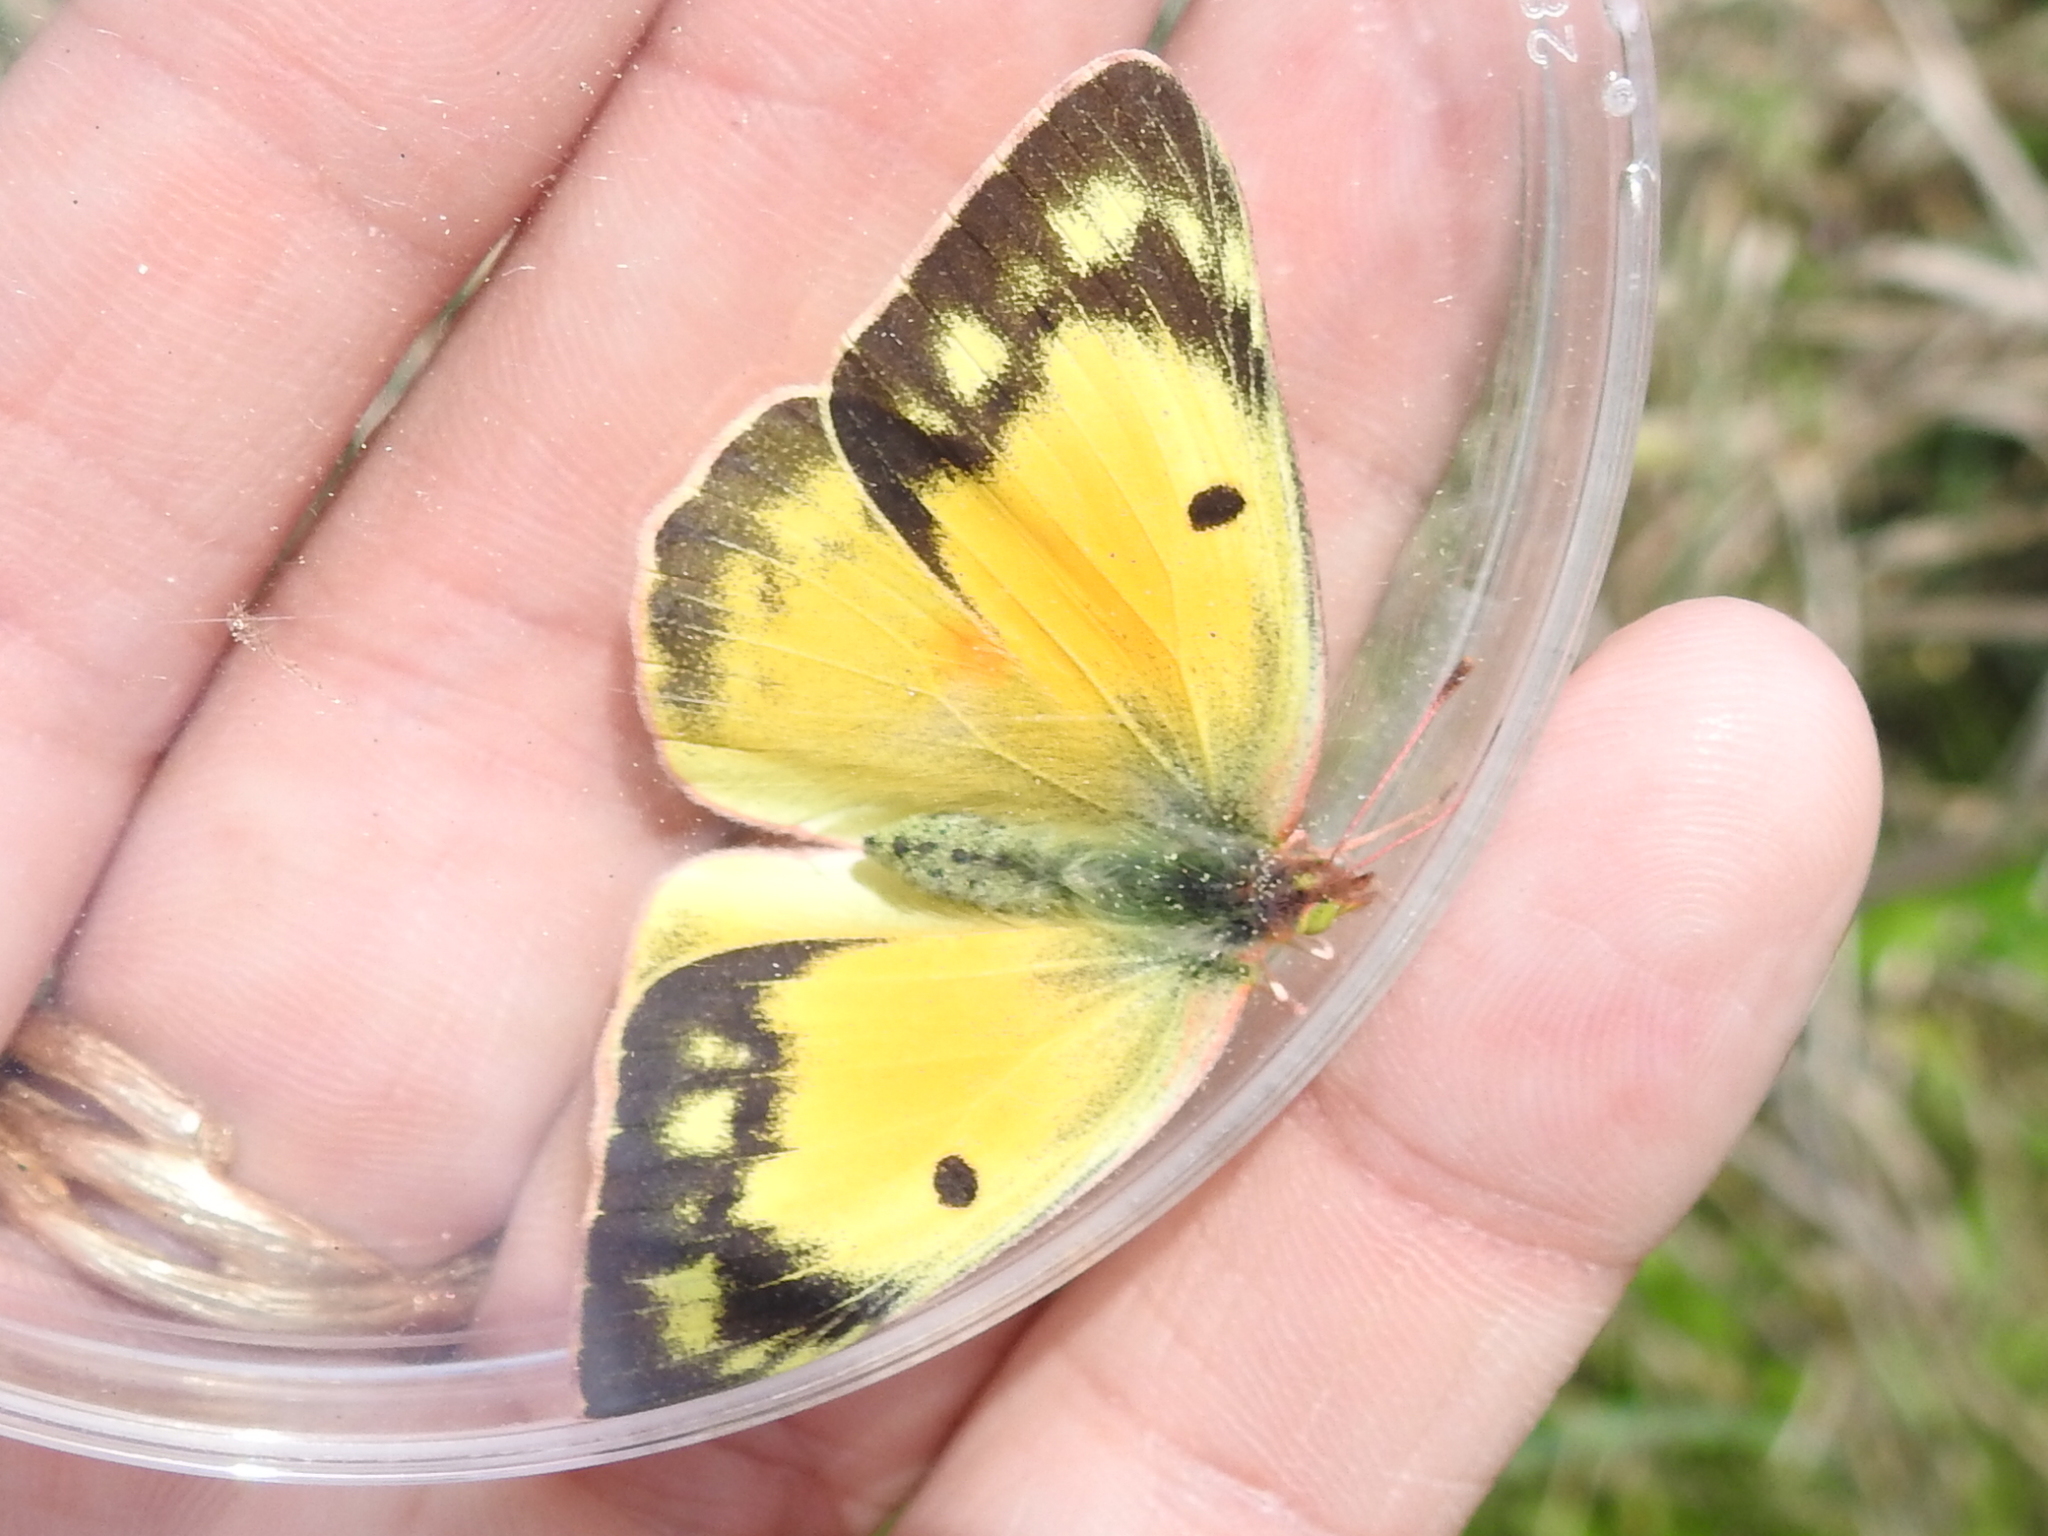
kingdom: Animalia
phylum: Arthropoda
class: Insecta
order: Lepidoptera
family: Pieridae
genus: Colias
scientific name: Colias eurytheme
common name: Alfalfa butterfly
